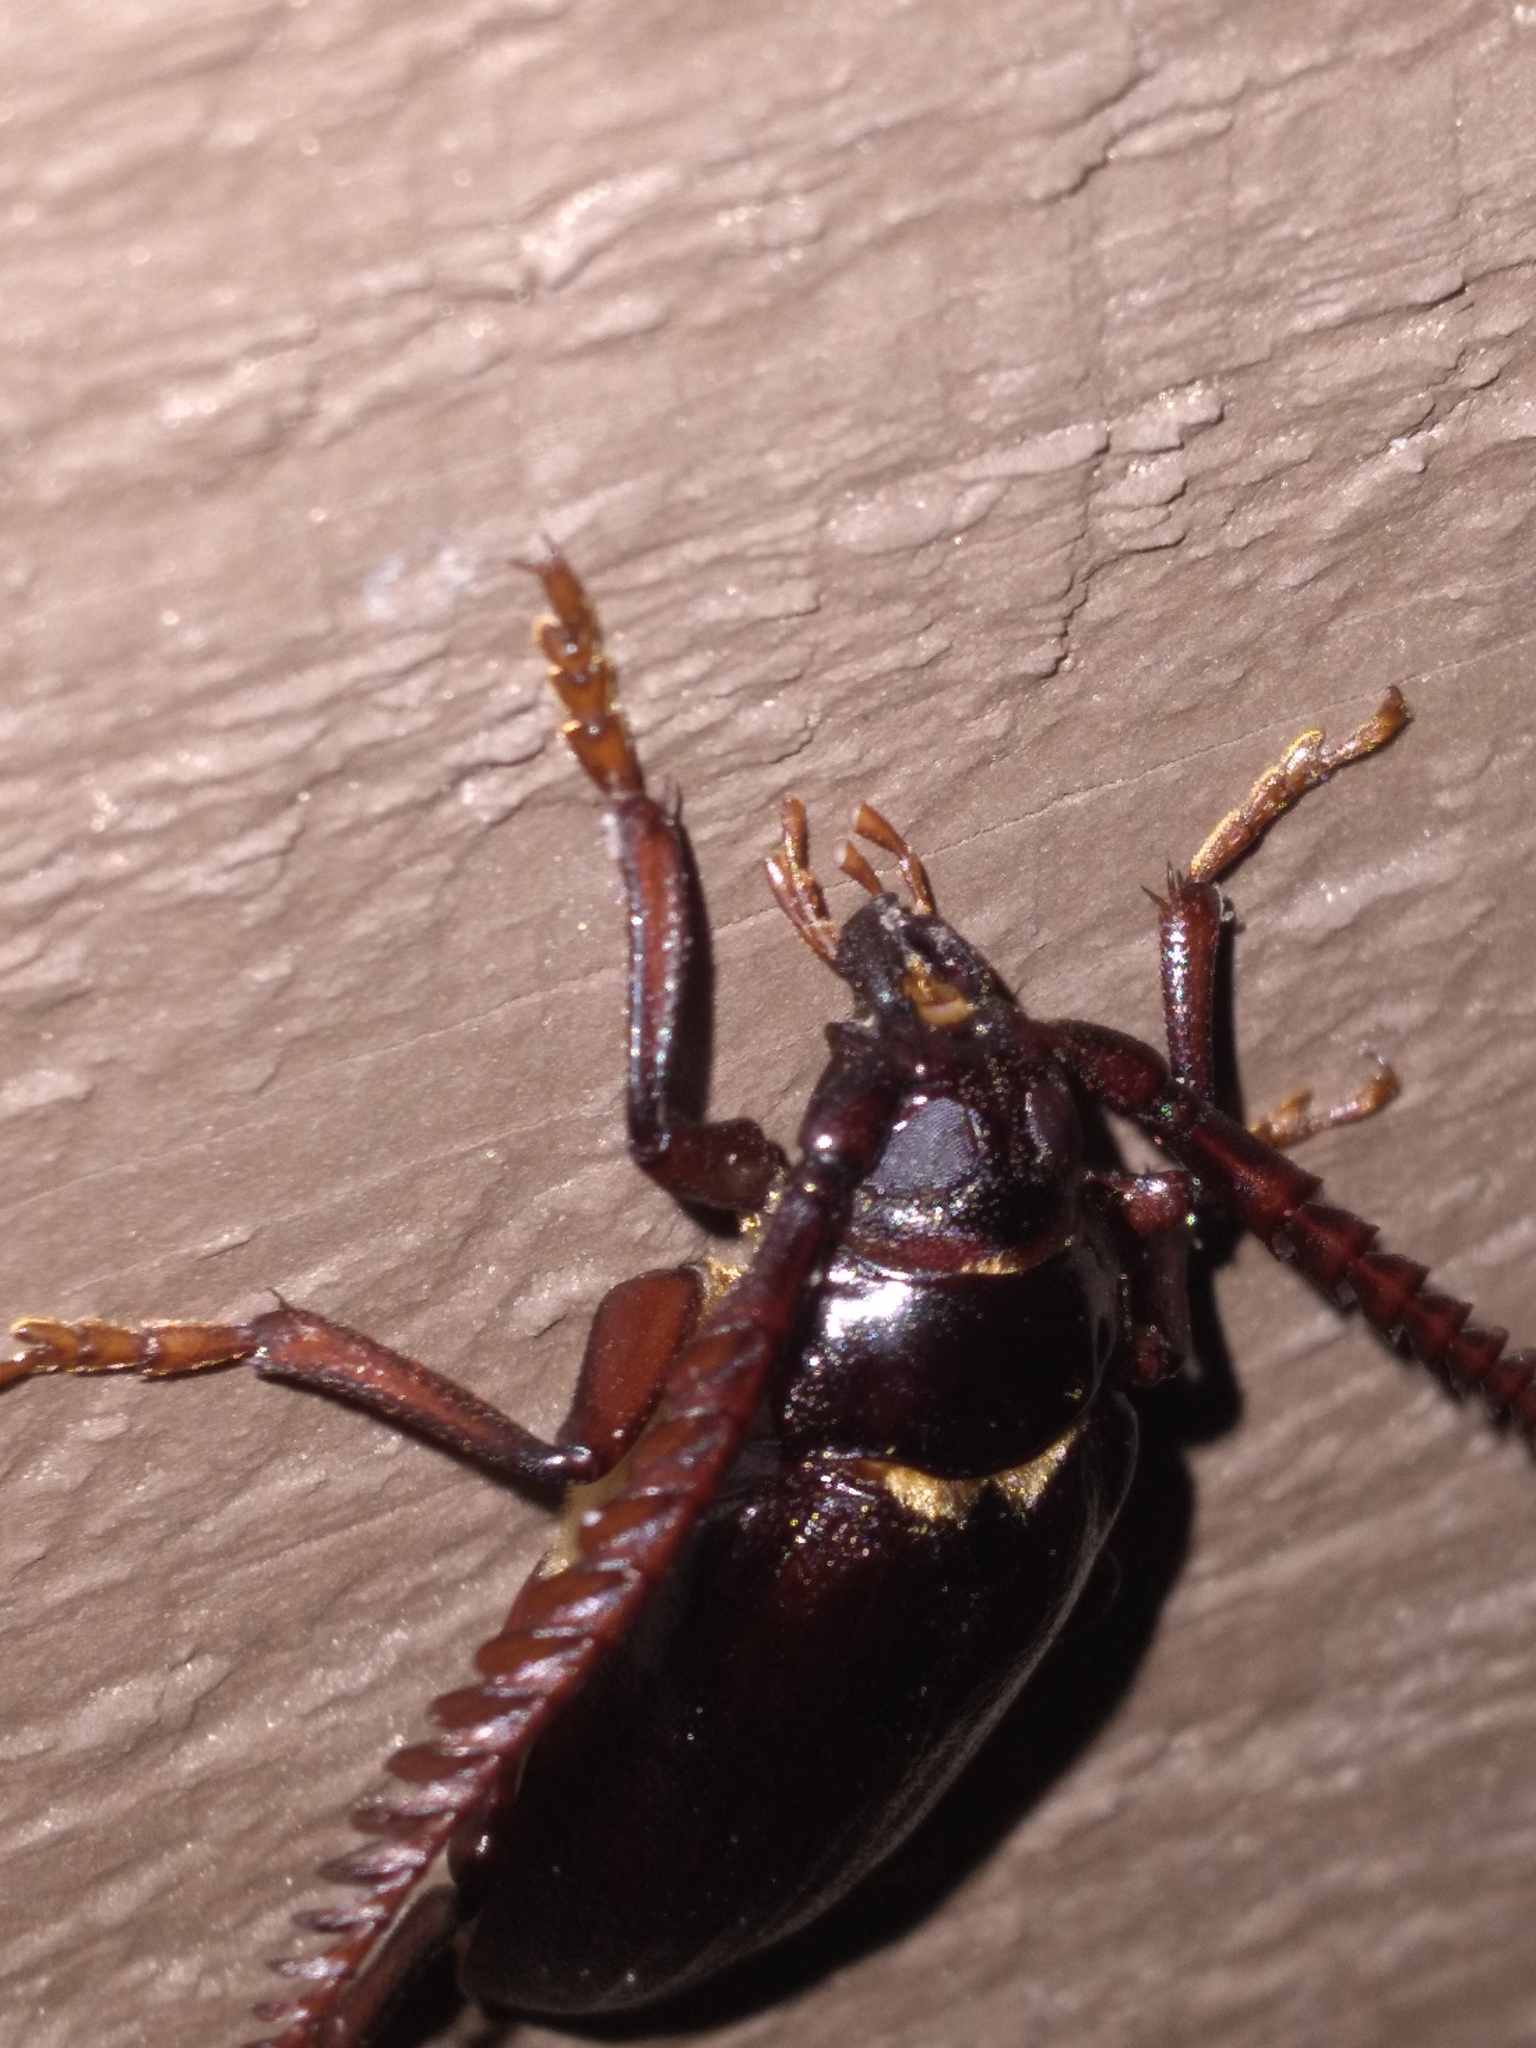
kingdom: Animalia
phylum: Arthropoda
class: Insecta
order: Coleoptera
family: Cerambycidae
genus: Prionus
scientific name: Prionus imbricornis
